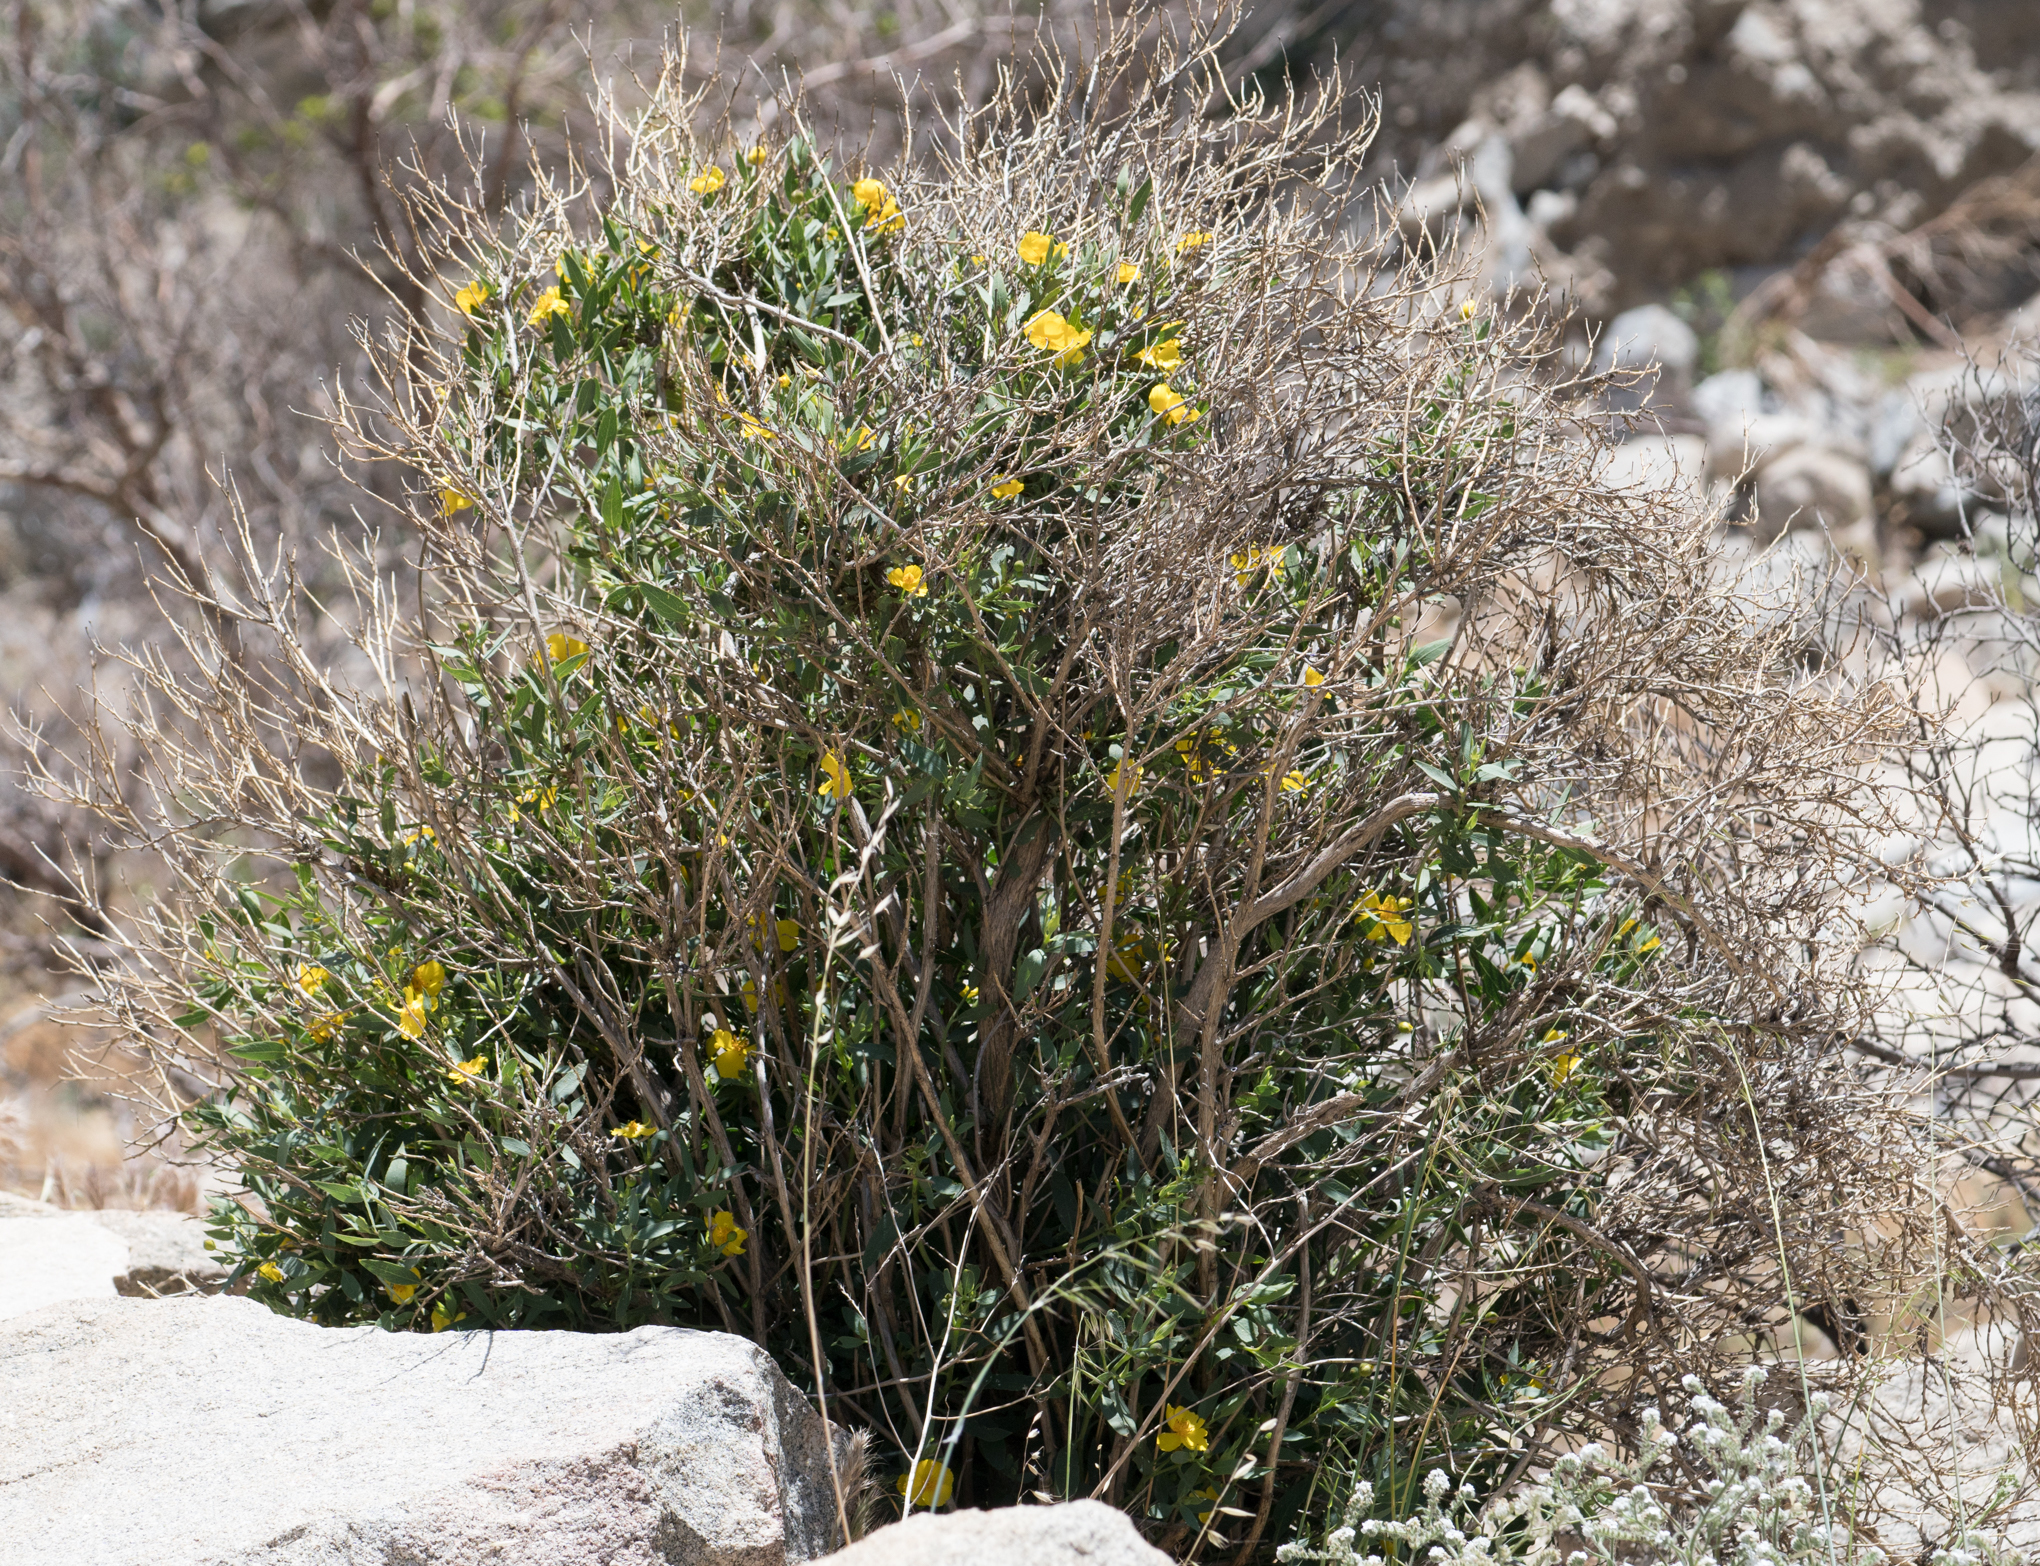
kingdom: Plantae
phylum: Tracheophyta
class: Magnoliopsida
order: Ranunculales
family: Papaveraceae
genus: Dendromecon
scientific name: Dendromecon rigida
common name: Tree poppy
